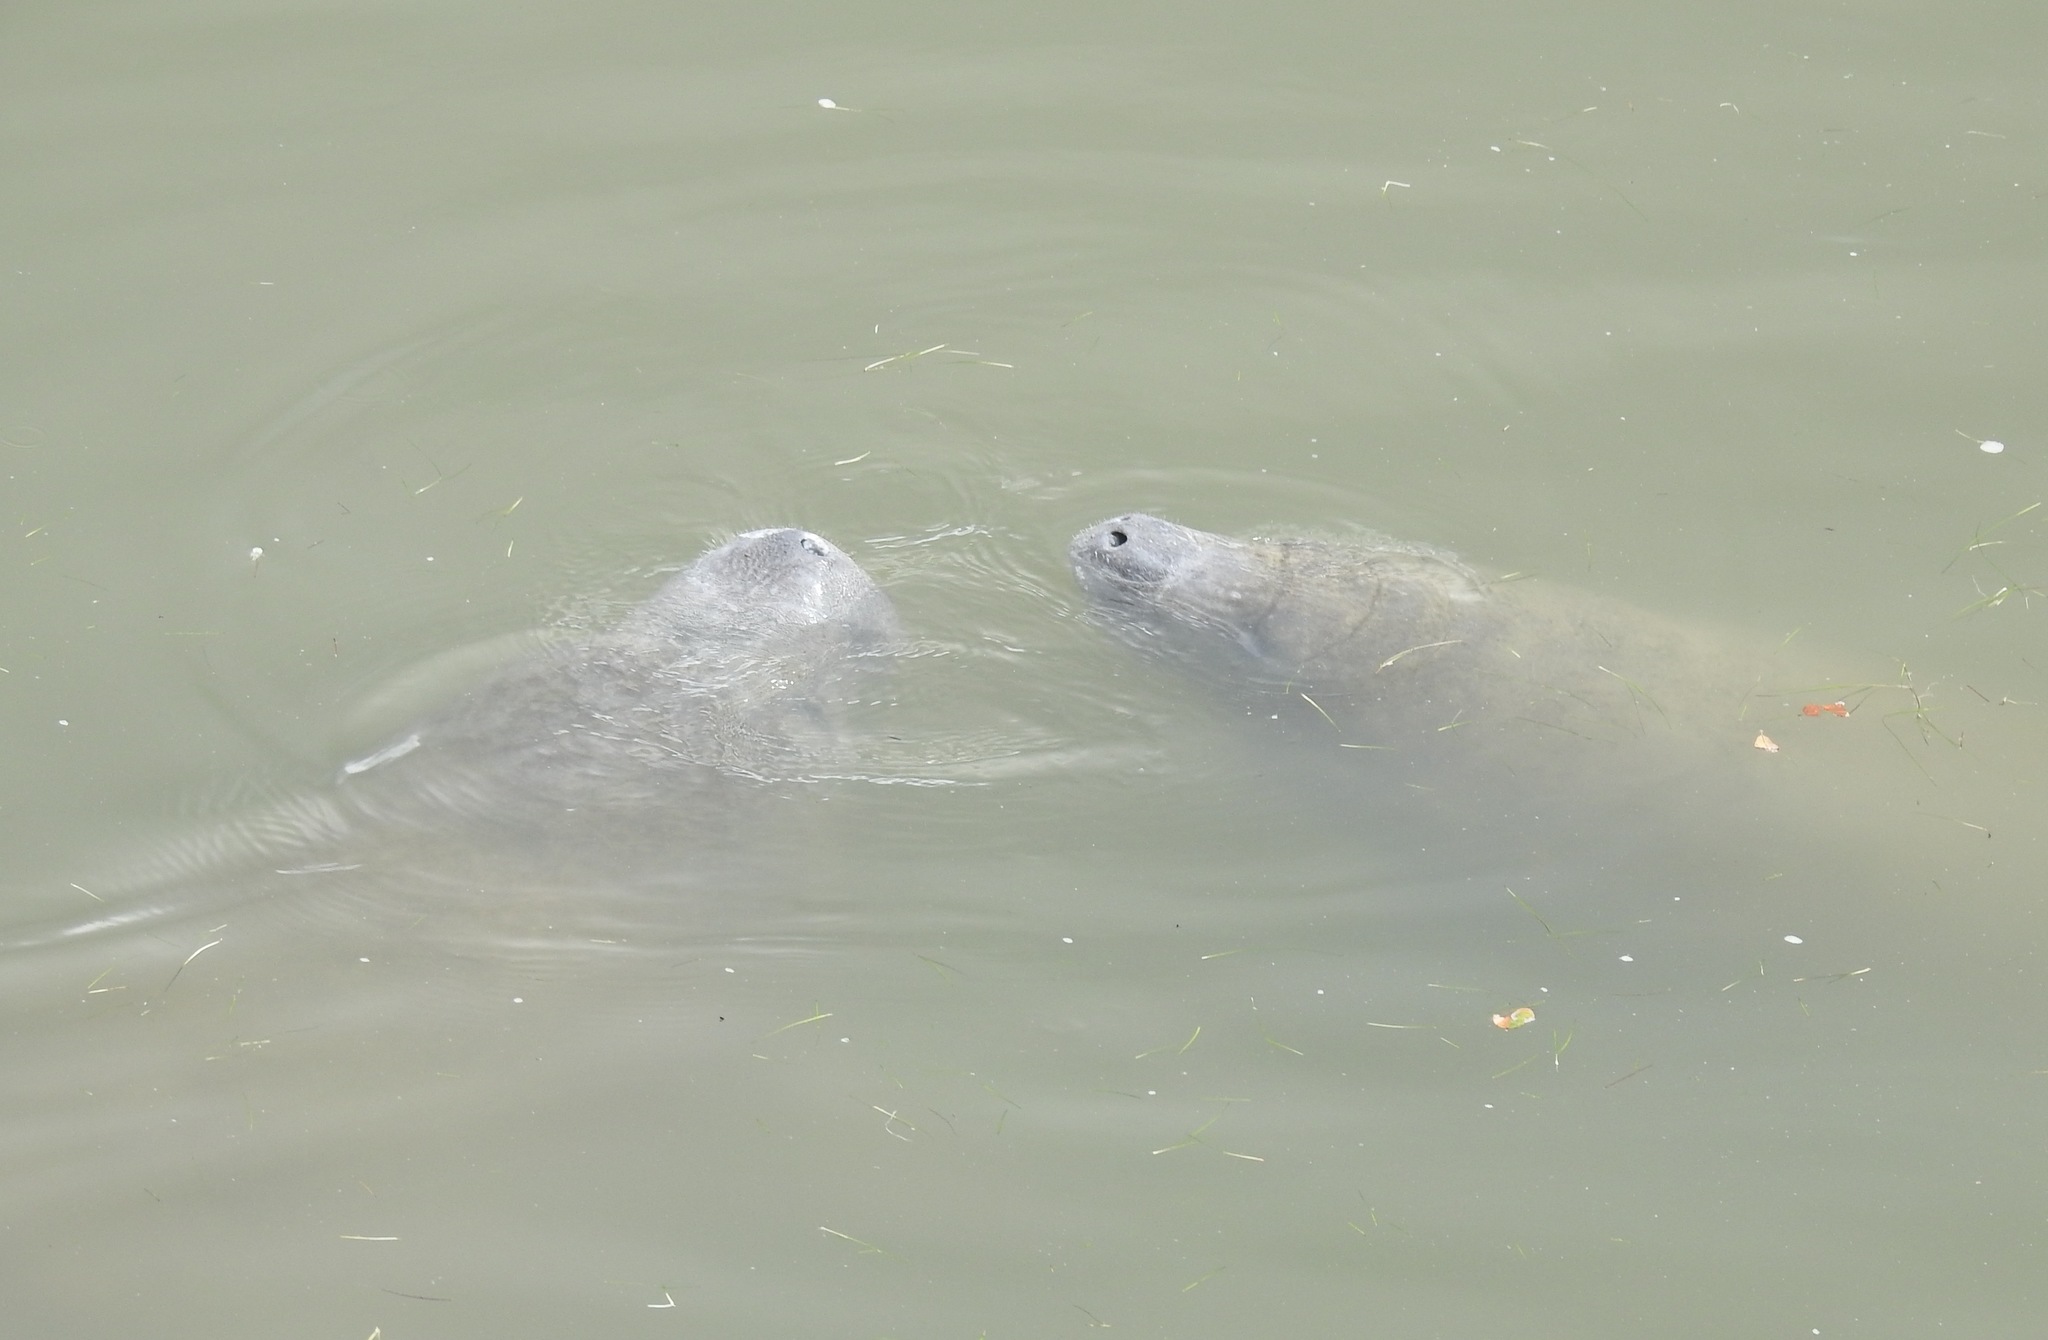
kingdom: Animalia
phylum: Chordata
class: Mammalia
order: Sirenia
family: Trichechidae
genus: Trichechus
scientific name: Trichechus manatus
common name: West indian manatee
